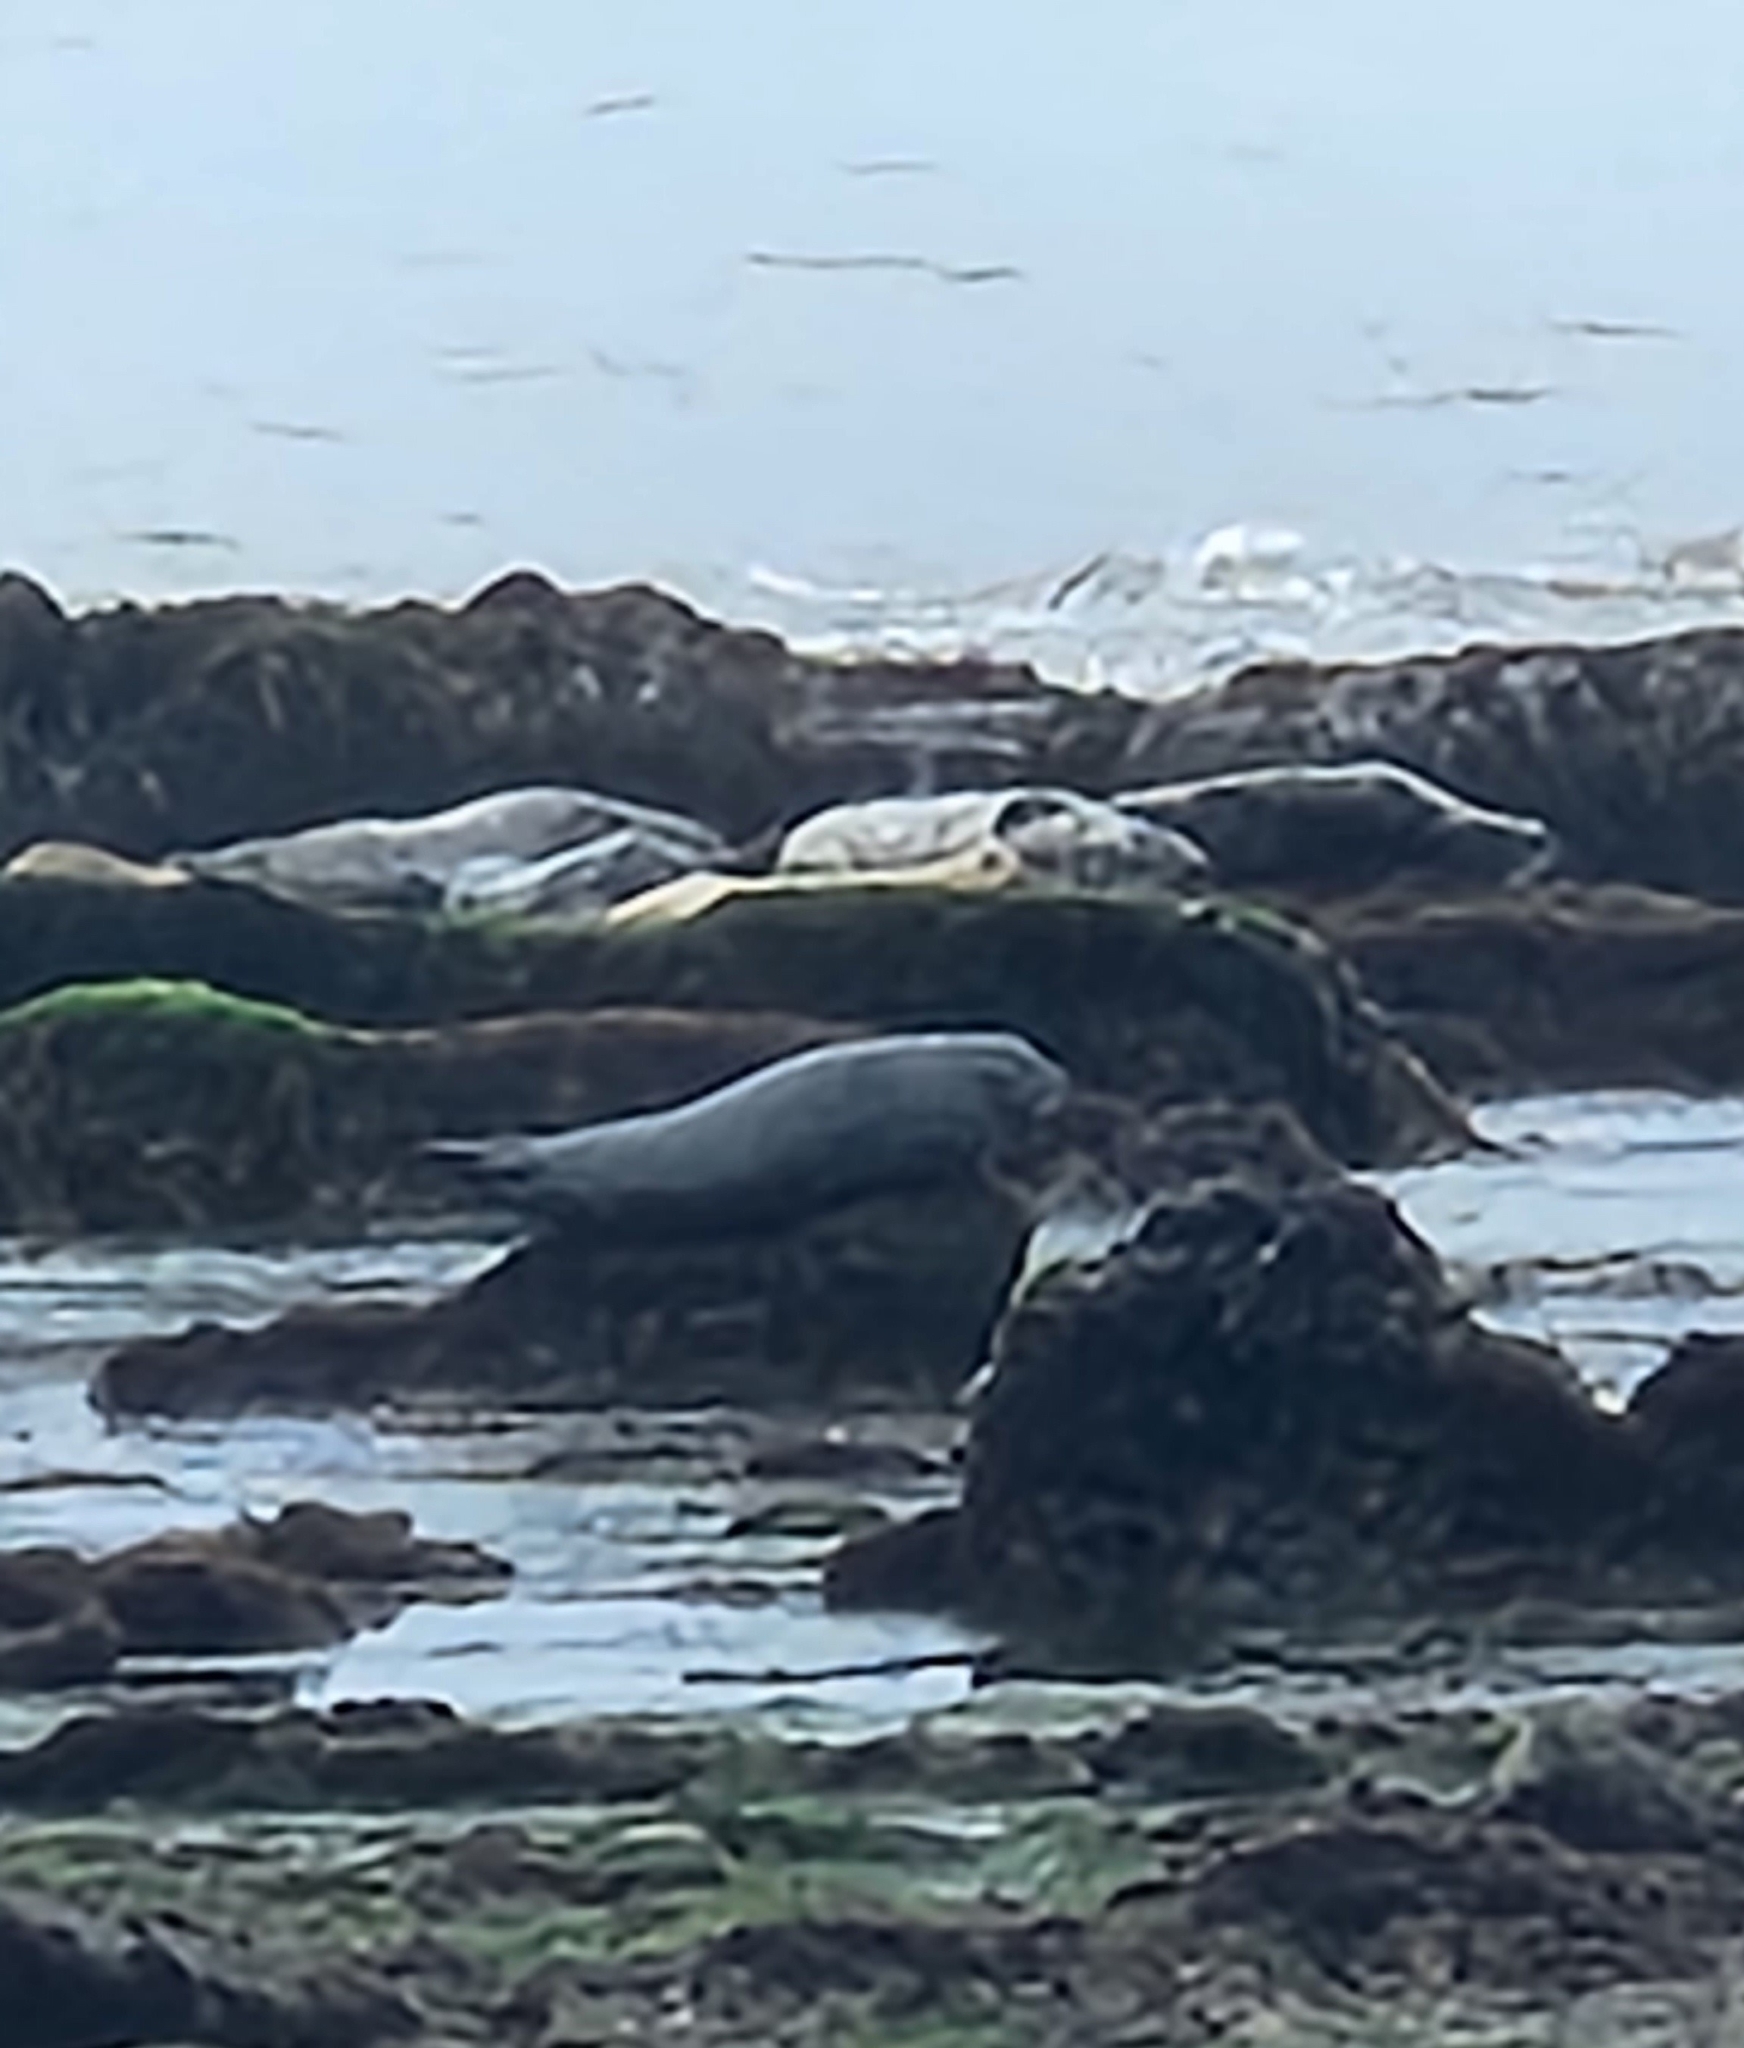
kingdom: Animalia
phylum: Chordata
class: Mammalia
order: Carnivora
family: Phocidae
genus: Phoca
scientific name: Phoca vitulina
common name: Harbor seal
